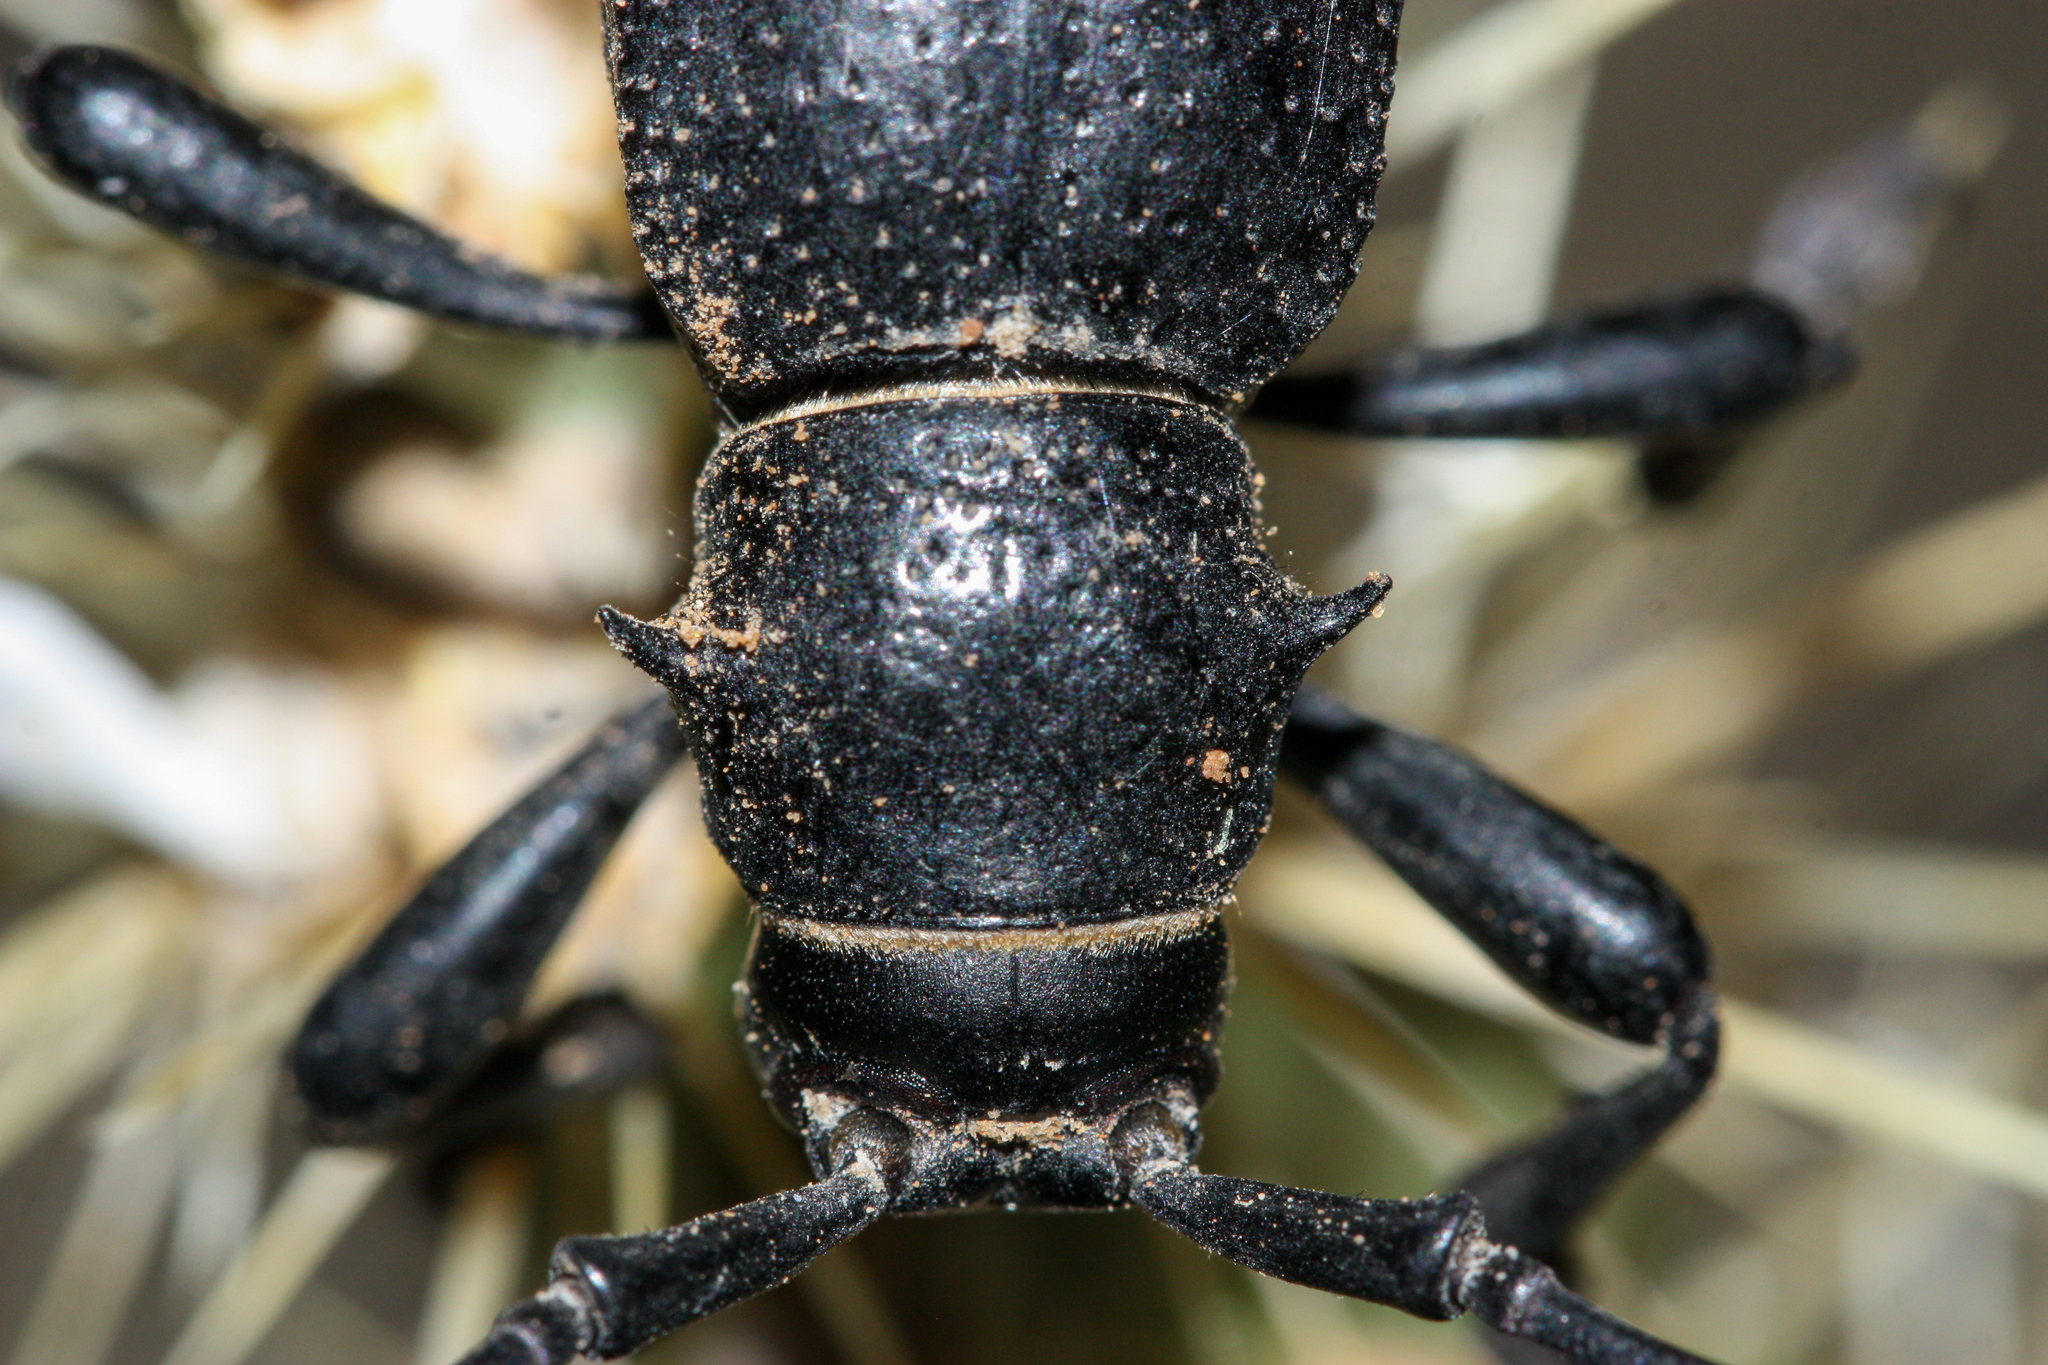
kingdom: Animalia
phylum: Arthropoda
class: Insecta
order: Coleoptera
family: Cerambycidae
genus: Moneilema
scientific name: Moneilema gigas
